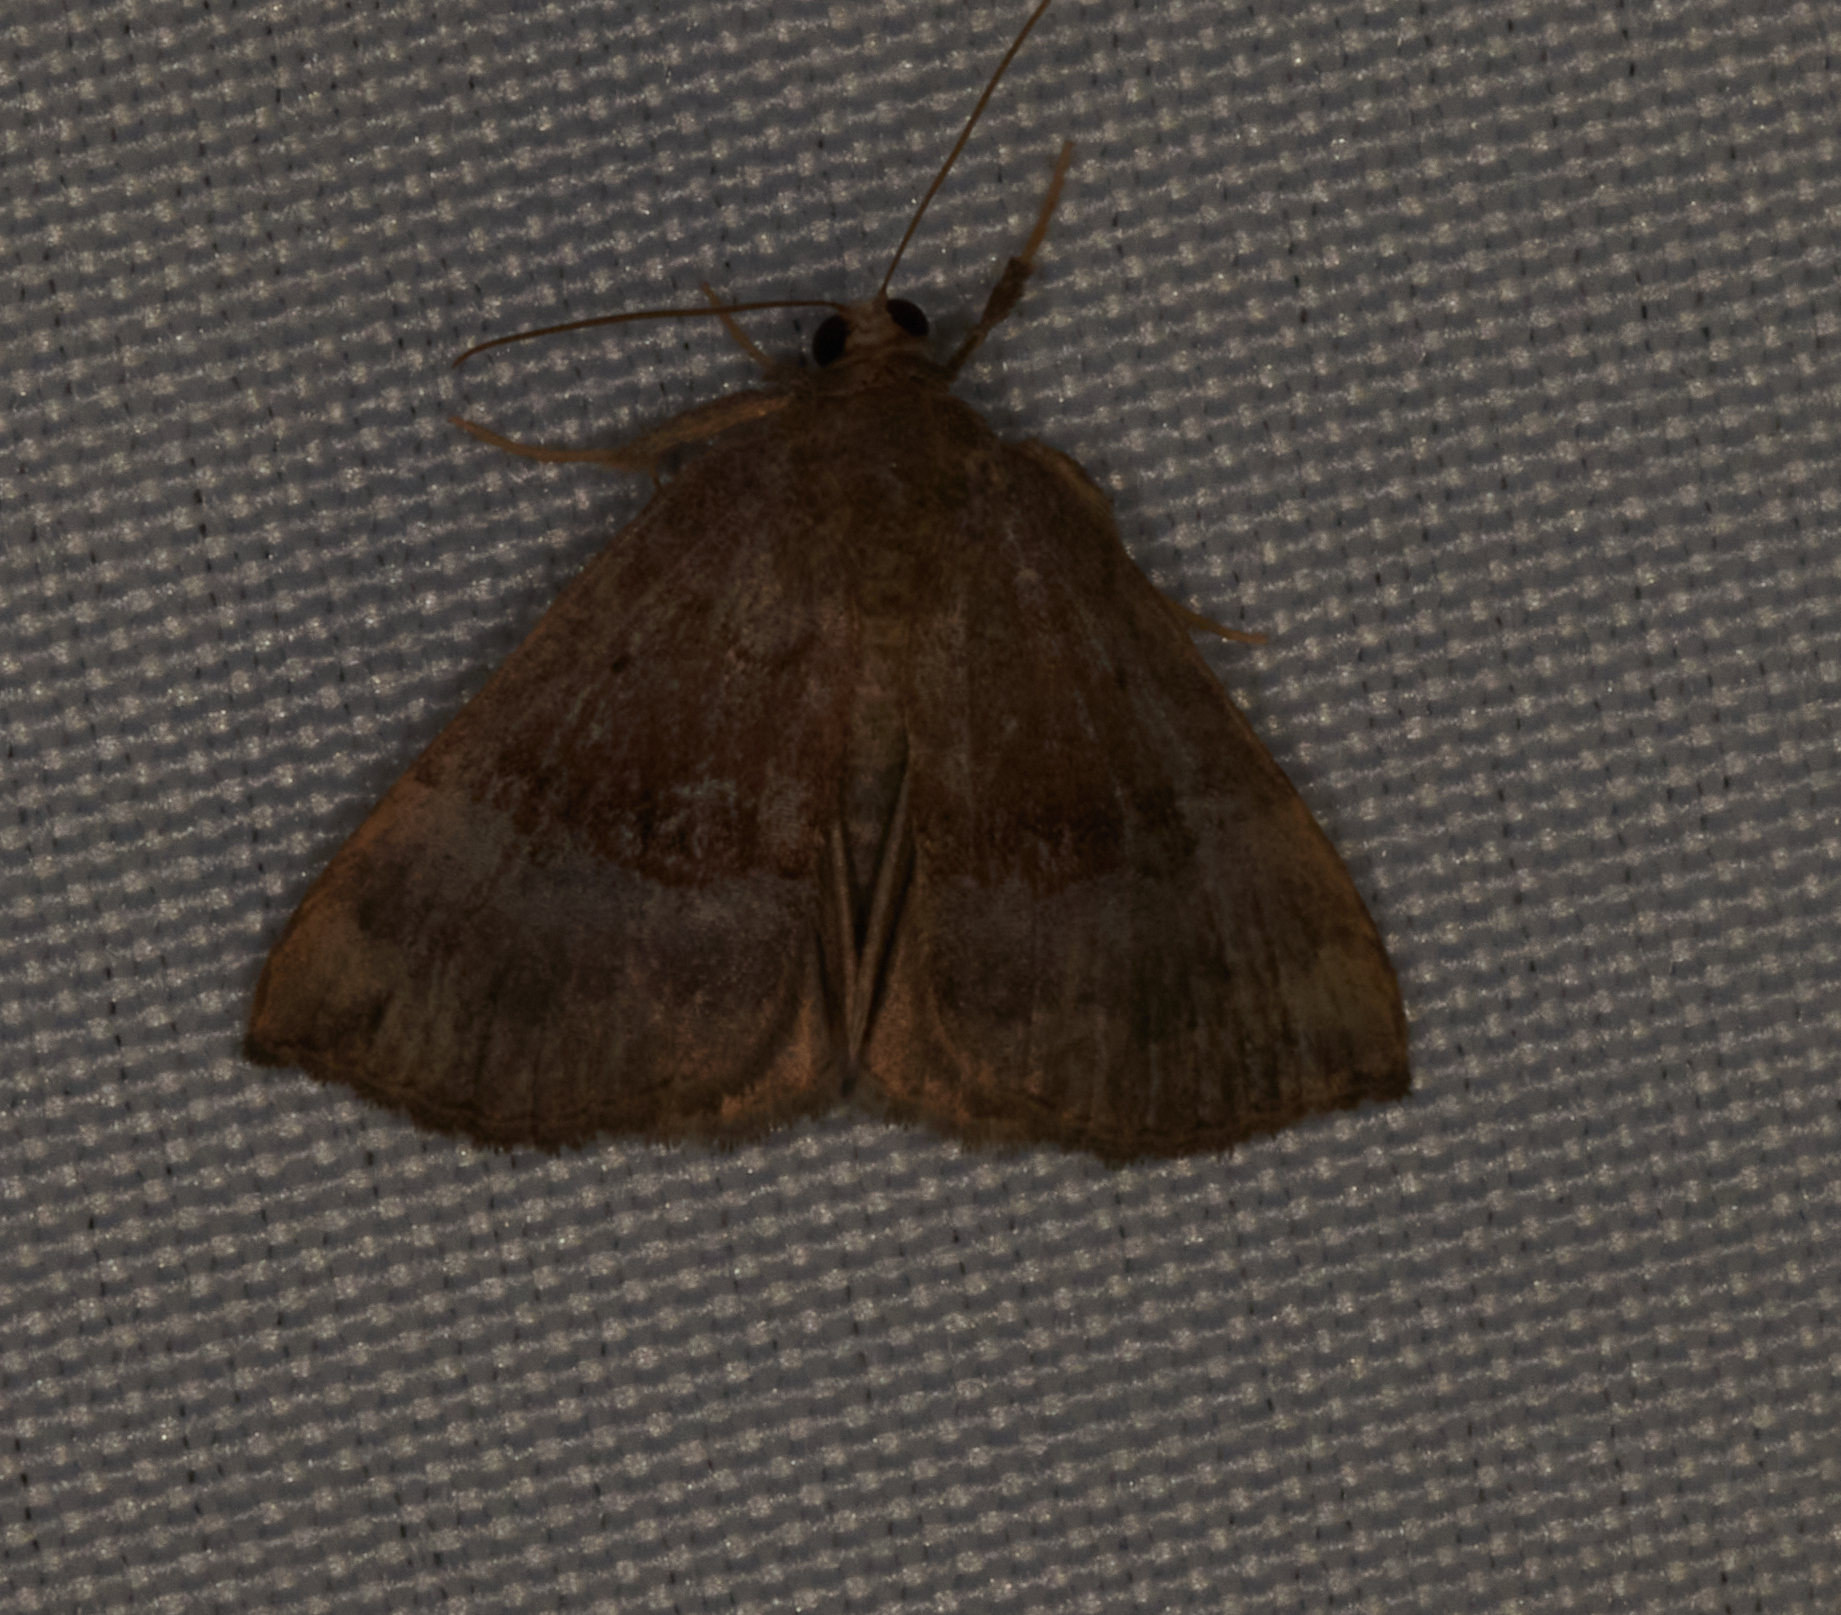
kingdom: Animalia
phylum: Arthropoda
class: Insecta
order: Lepidoptera
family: Erebidae
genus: Hypena
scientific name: Hypena madefactalis
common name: Gray-edged snout
